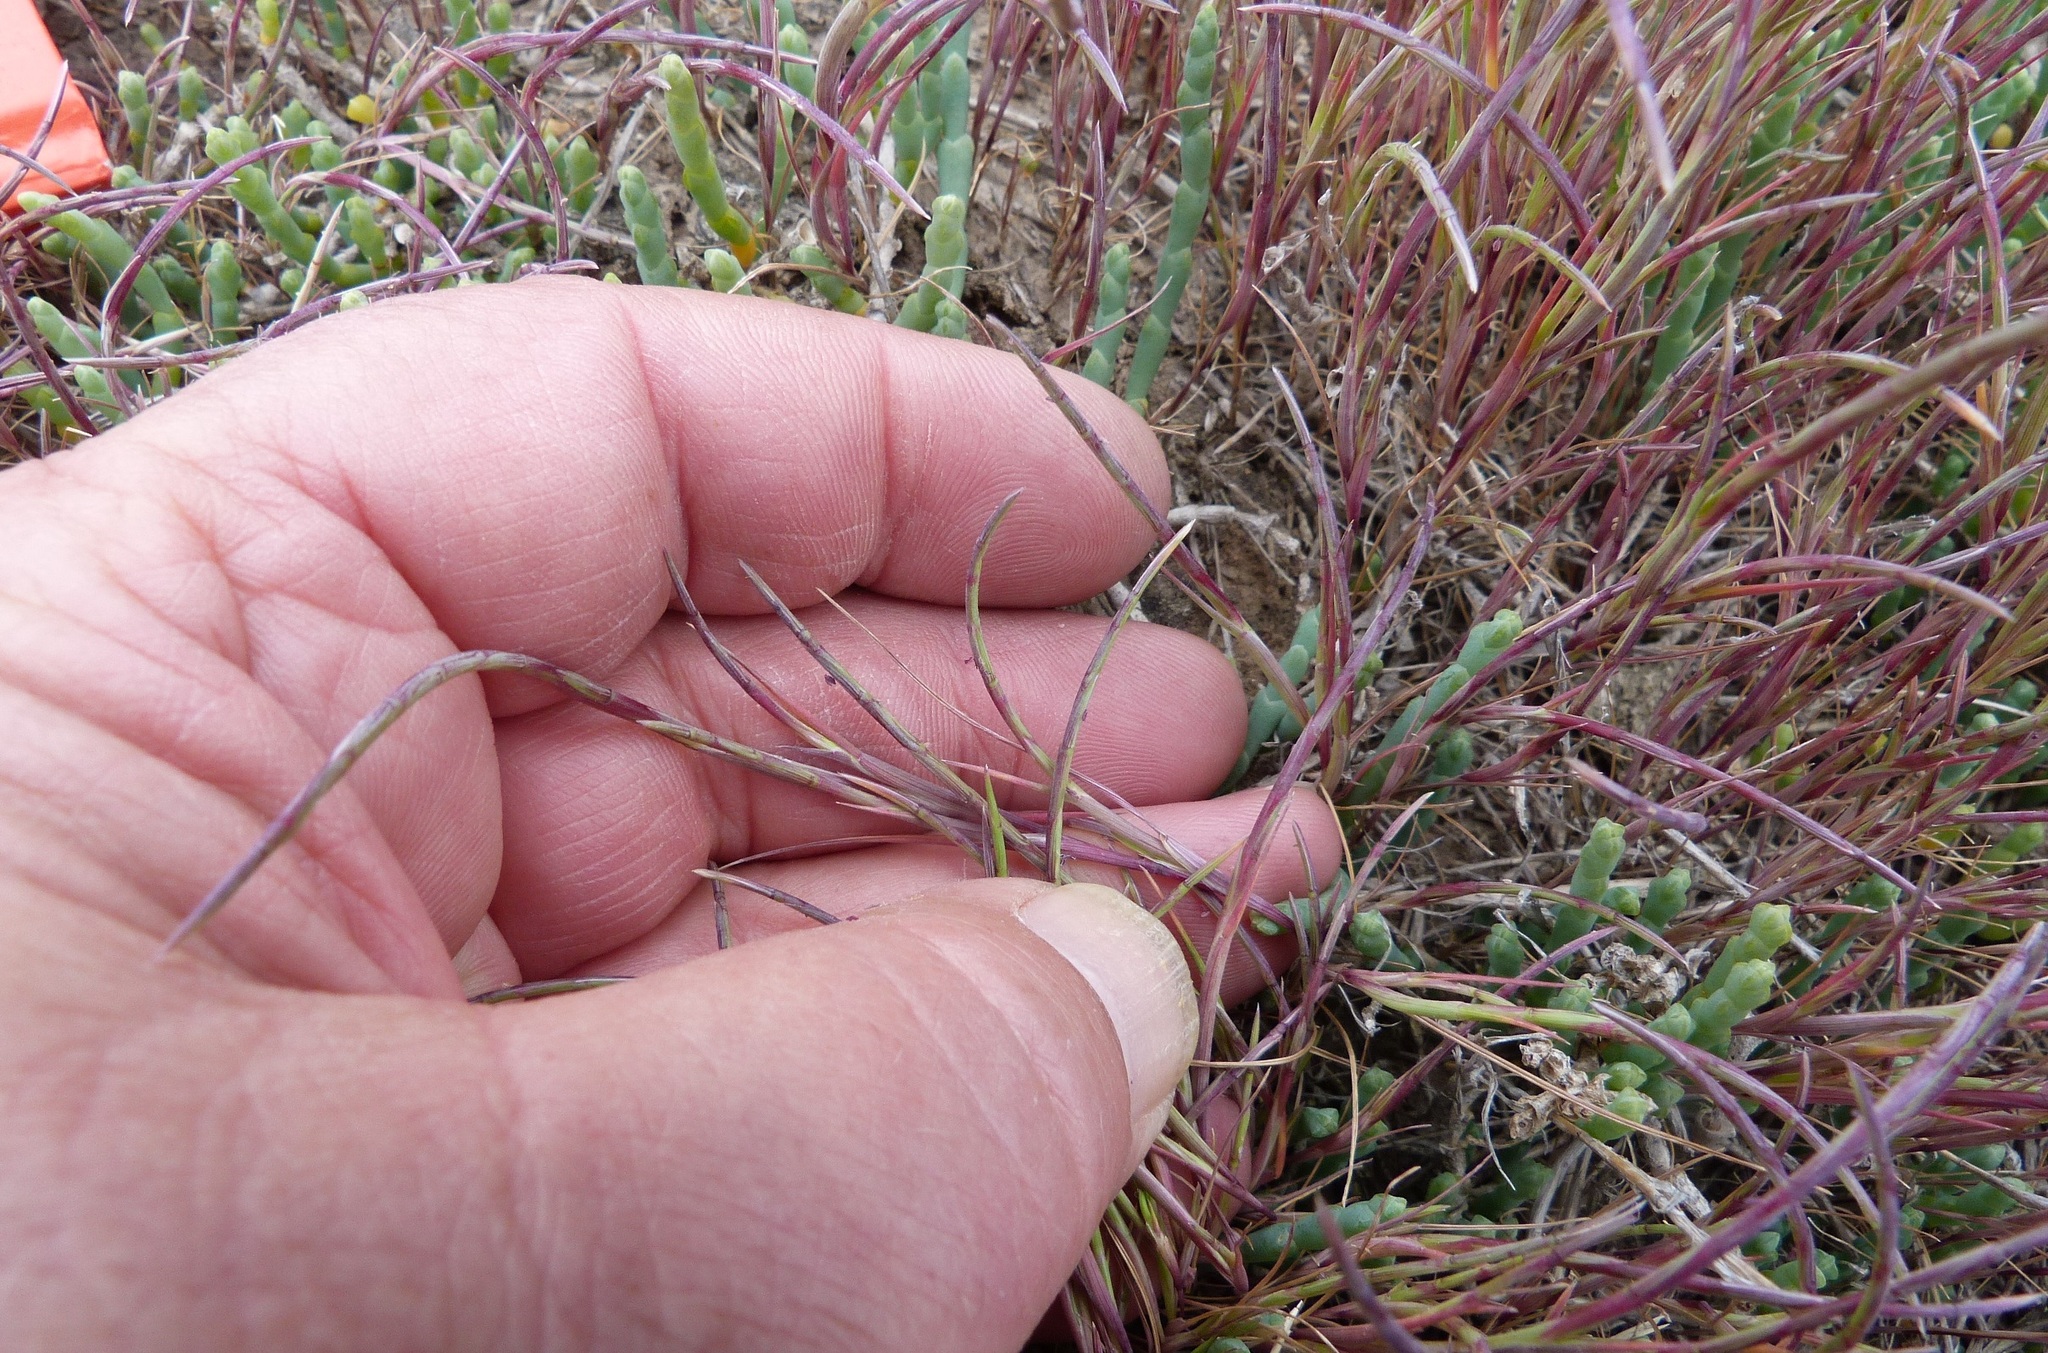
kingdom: Plantae
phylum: Tracheophyta
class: Liliopsida
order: Poales
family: Poaceae
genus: Parapholis
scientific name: Parapholis incurva
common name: Curved sicklegrass
